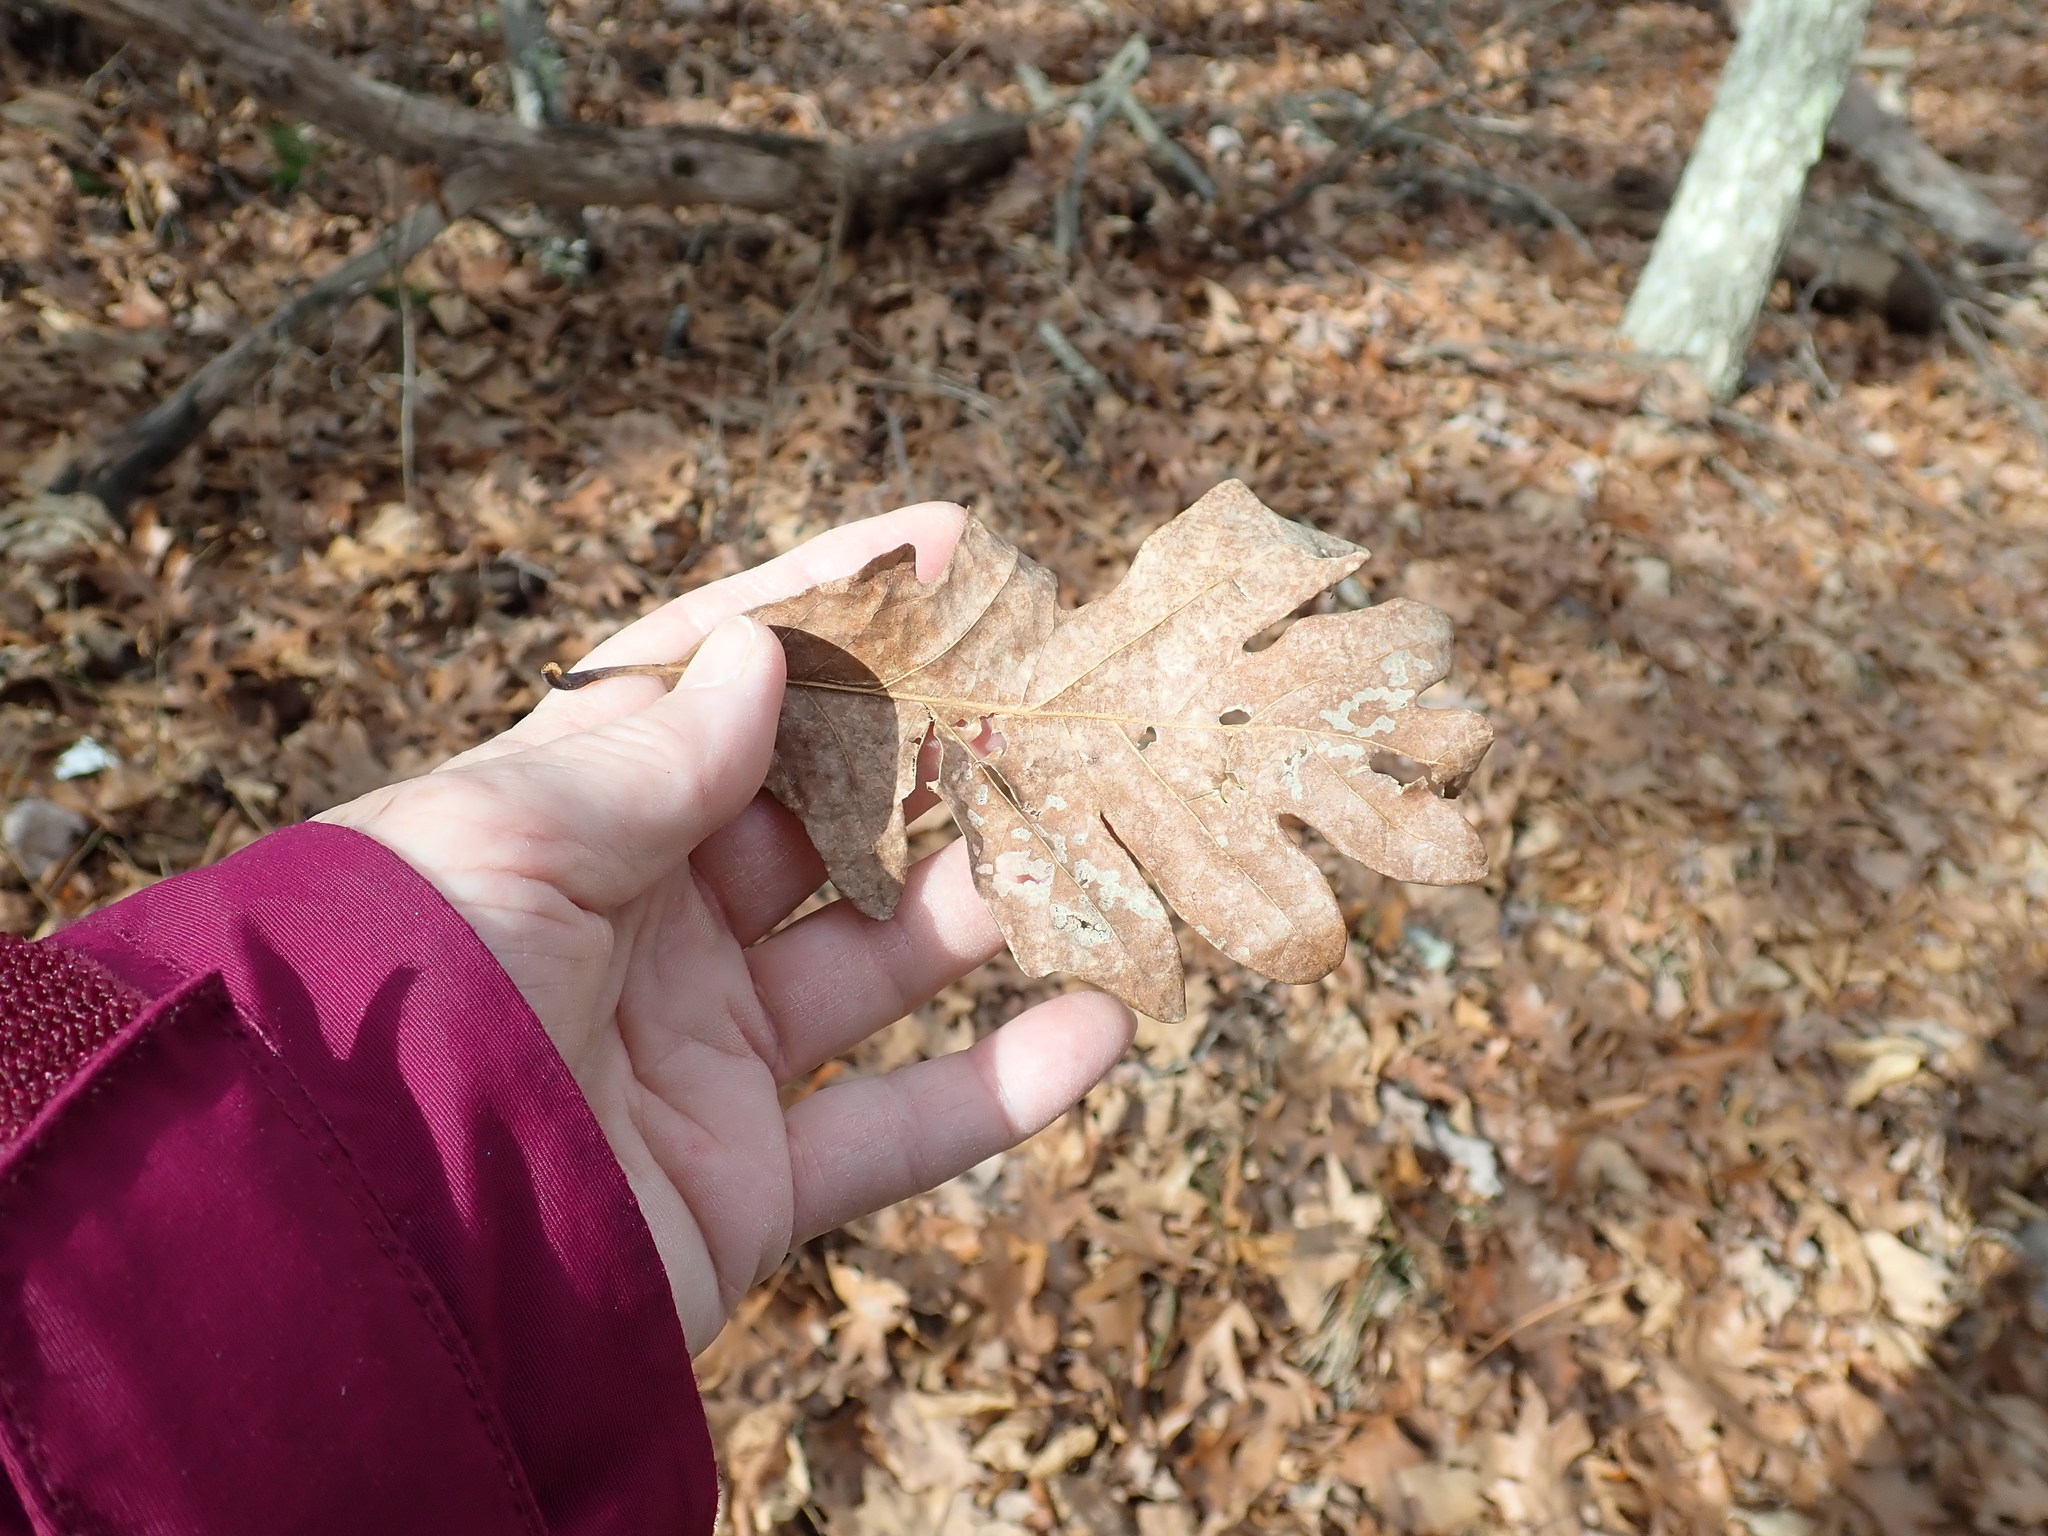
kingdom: Plantae
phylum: Tracheophyta
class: Magnoliopsida
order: Fagales
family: Fagaceae
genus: Quercus
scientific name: Quercus alba
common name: White oak
